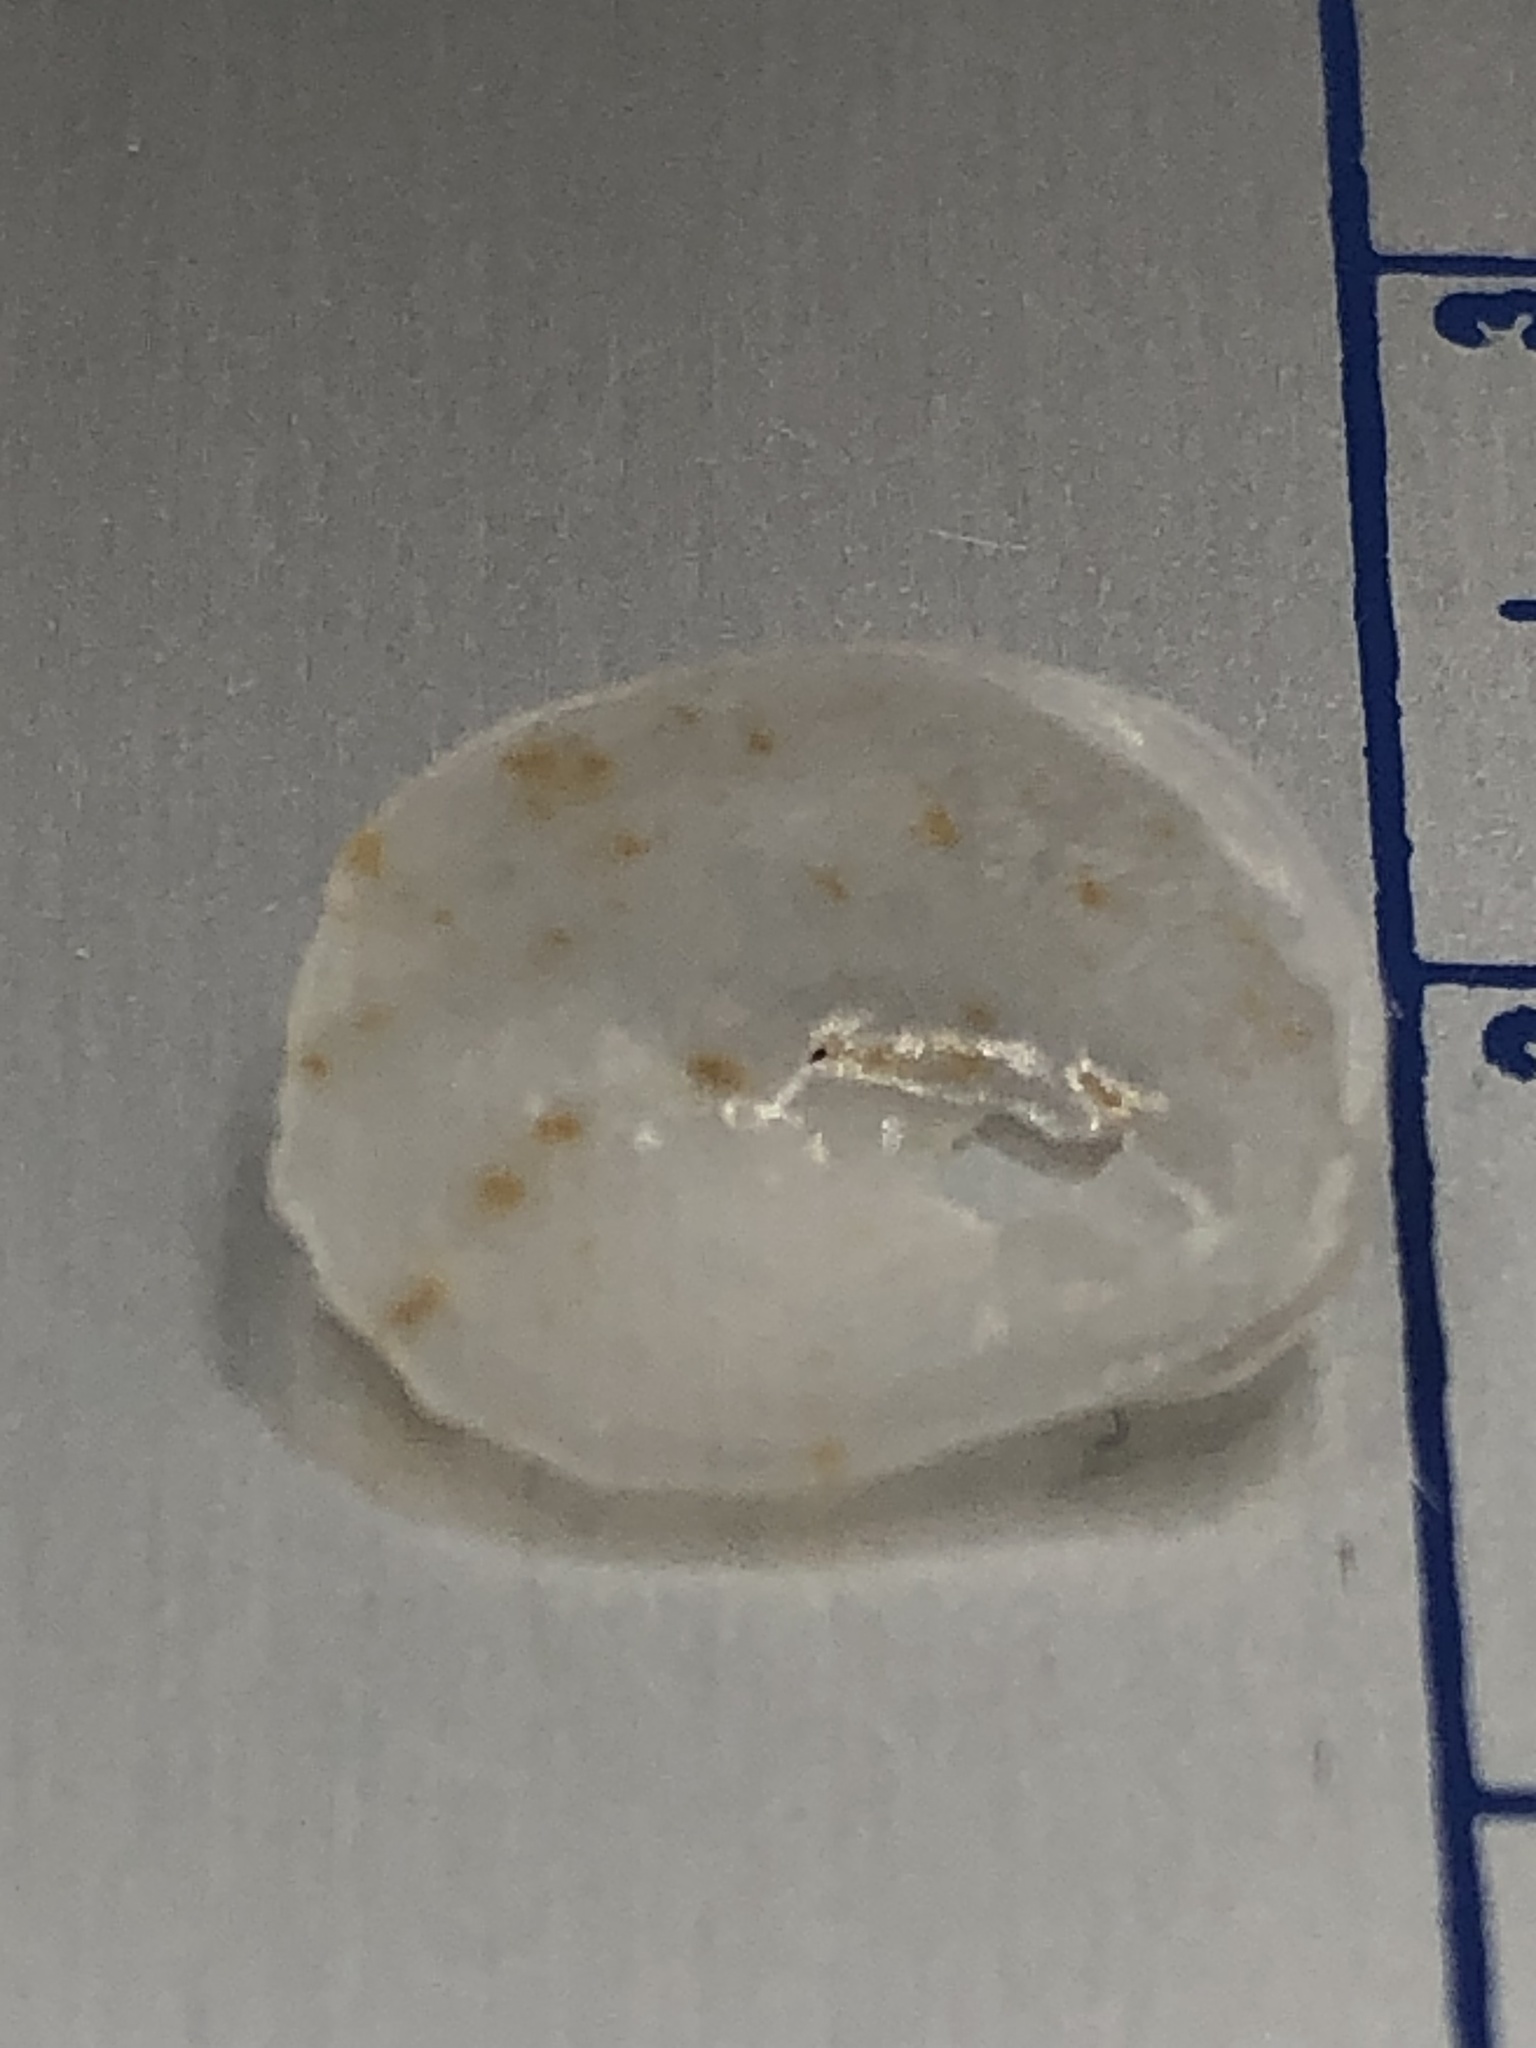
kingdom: Animalia
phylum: Mollusca
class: Gastropoda
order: Littorinimorpha
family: Calyptraeidae
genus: Bostrycapulus
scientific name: Bostrycapulus aculeatus
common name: Spiny slippersnail
